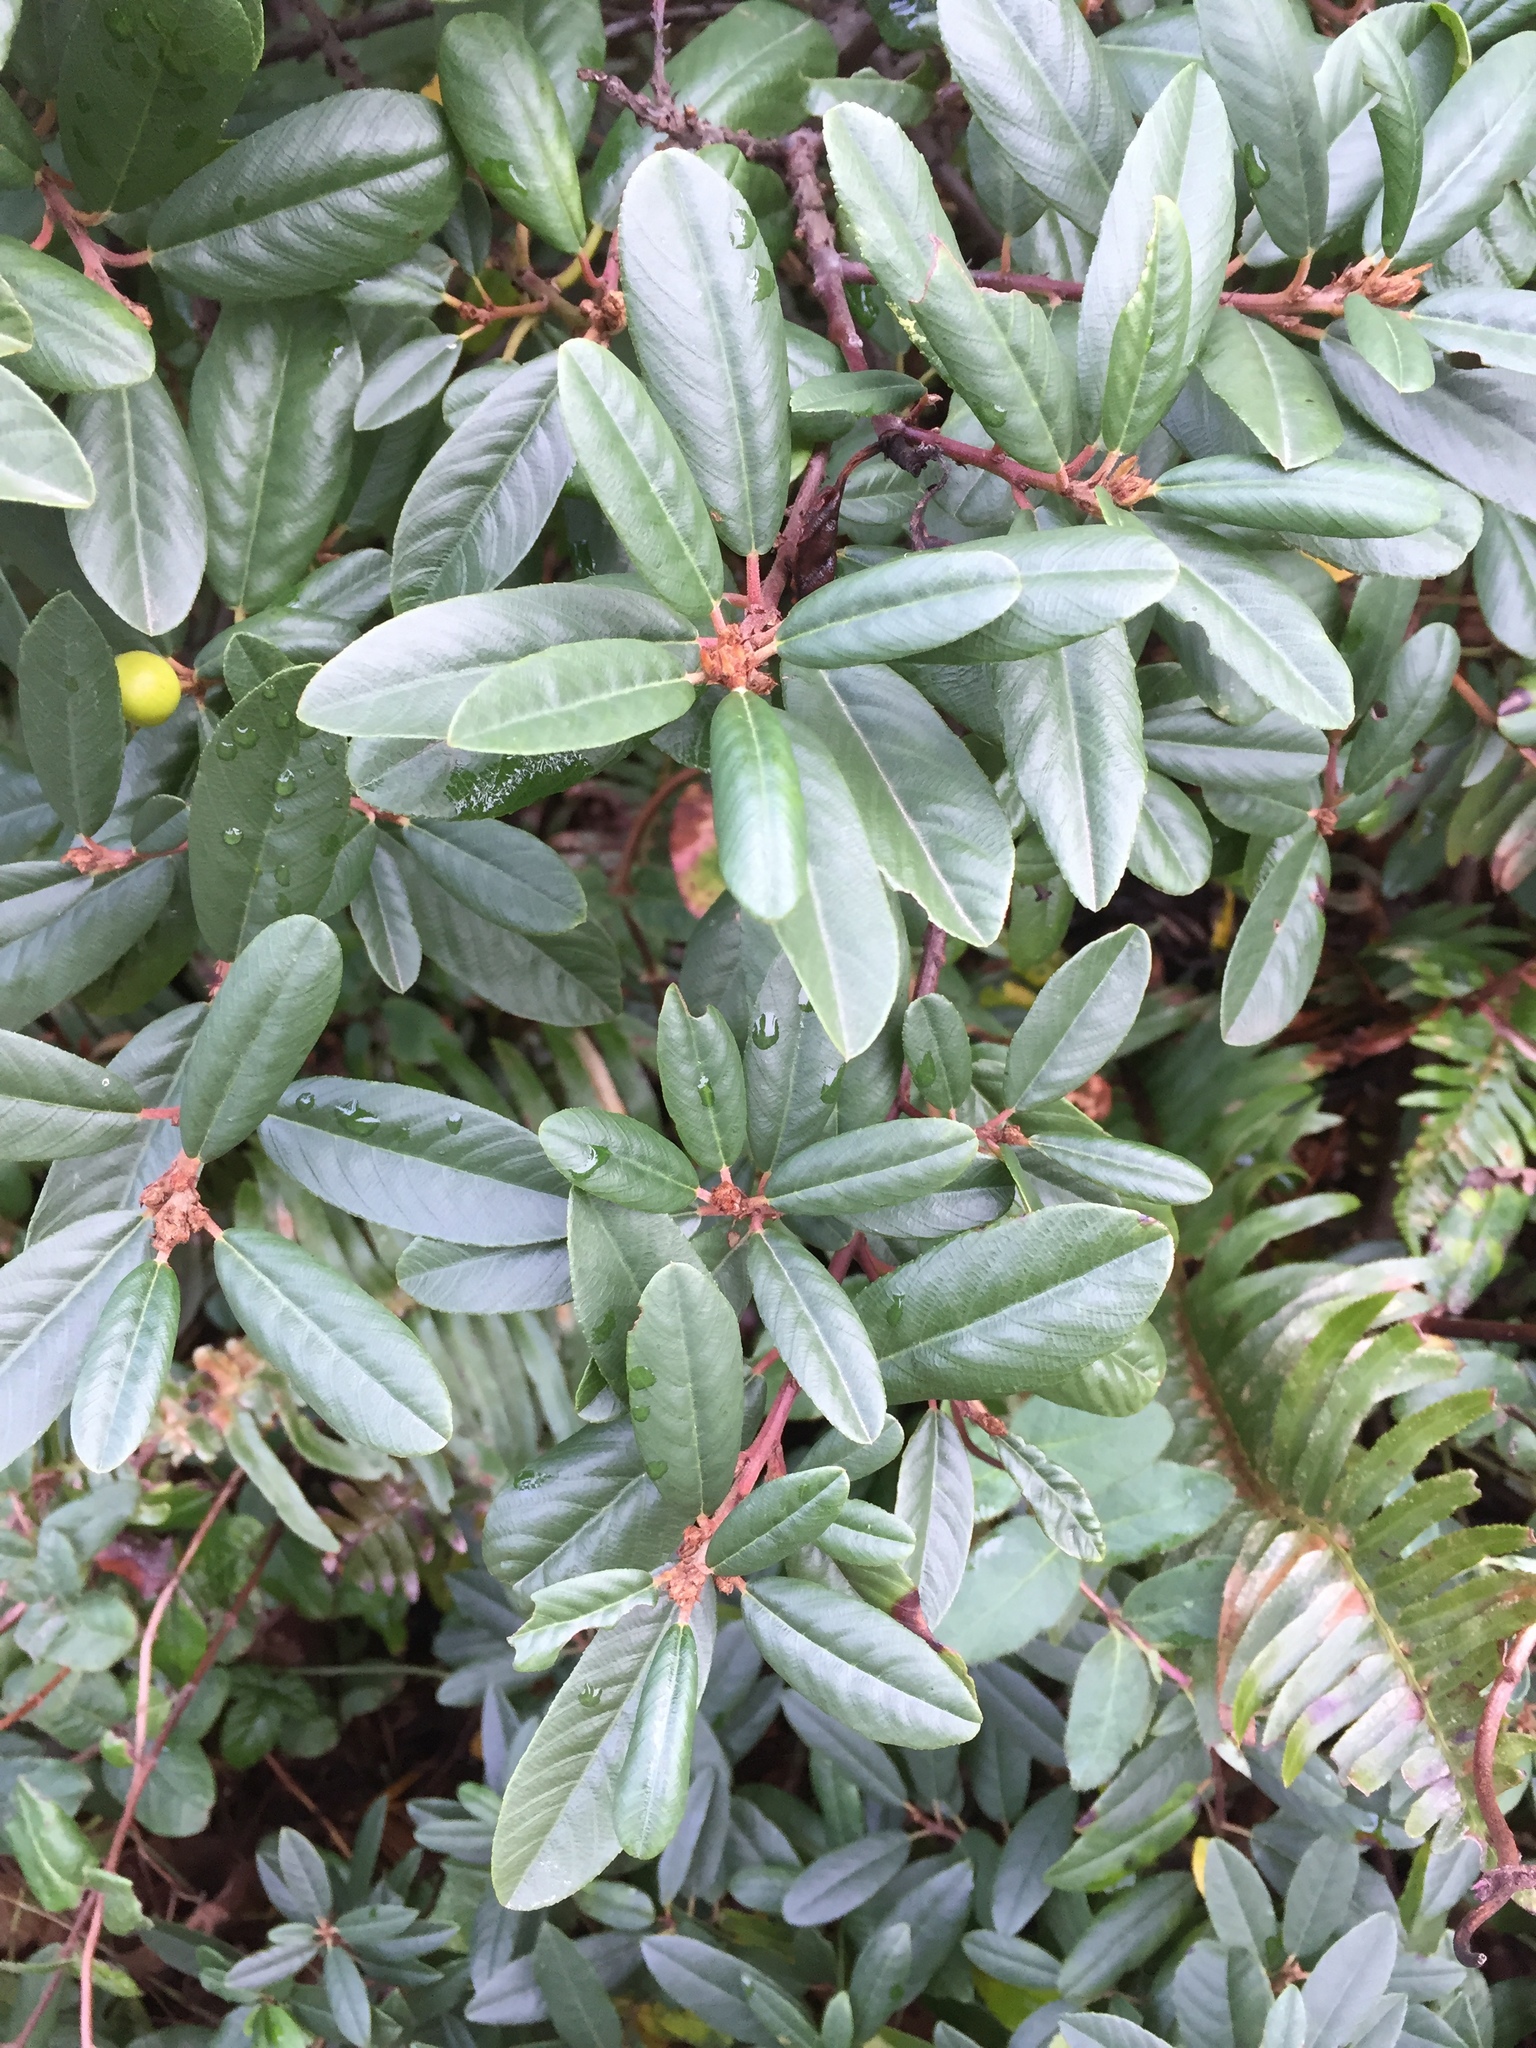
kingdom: Plantae
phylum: Tracheophyta
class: Magnoliopsida
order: Rosales
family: Rhamnaceae
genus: Frangula
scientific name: Frangula californica
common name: California buckthorn
